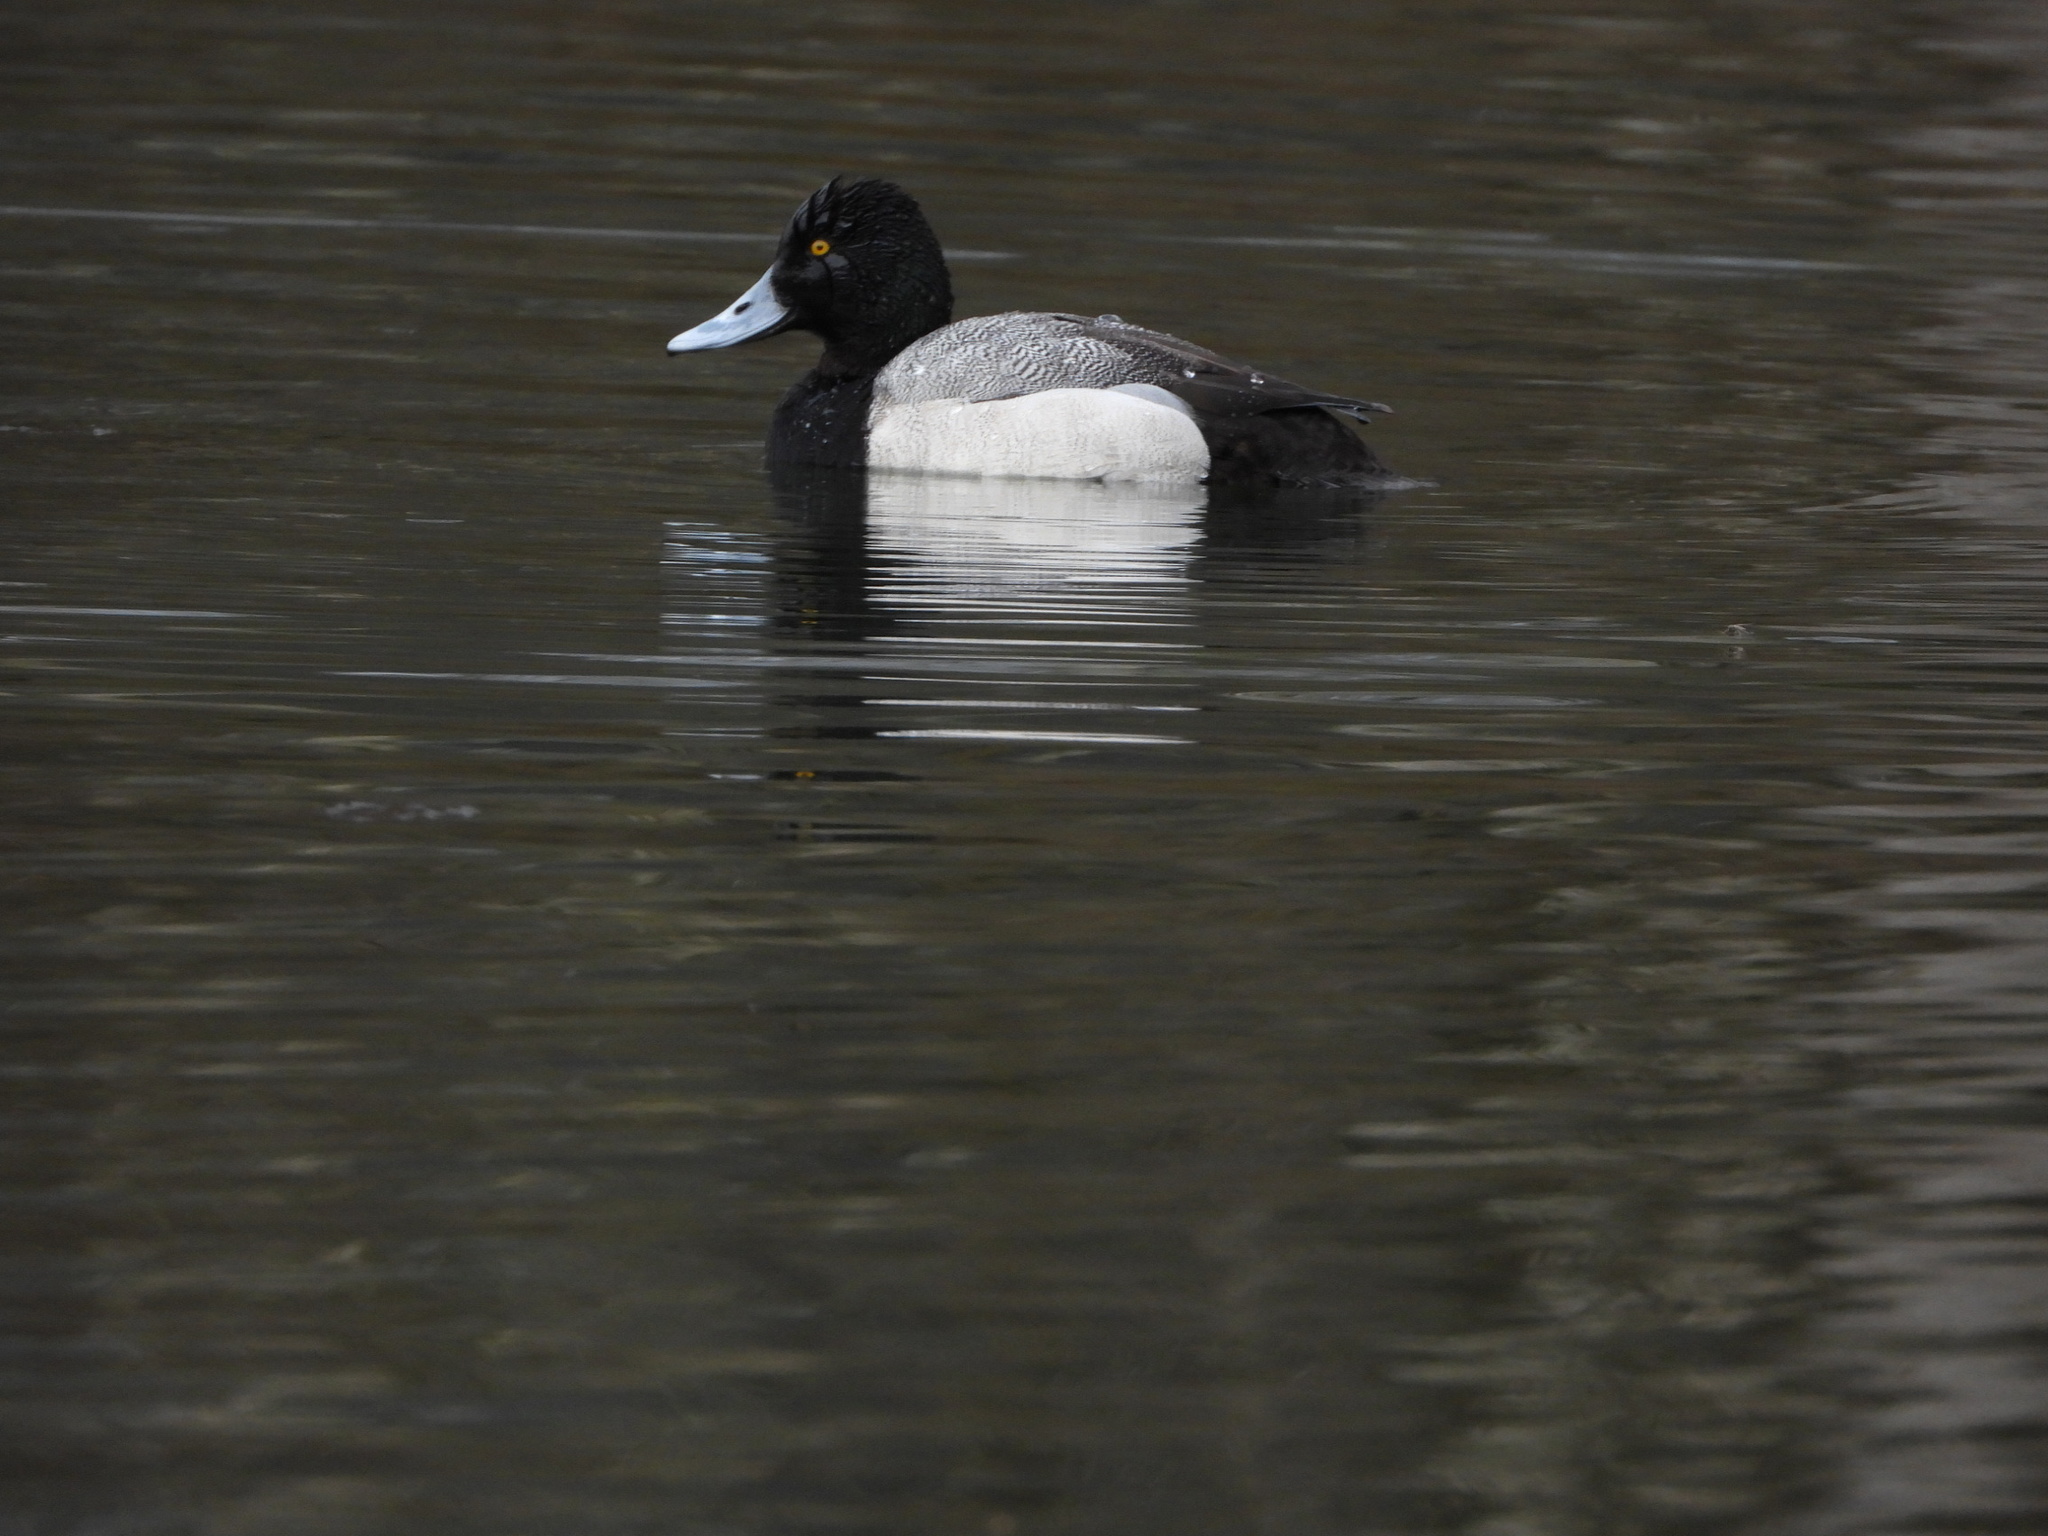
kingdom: Animalia
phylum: Chordata
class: Aves
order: Anseriformes
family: Anatidae
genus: Aythya
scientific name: Aythya affinis
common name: Lesser scaup
